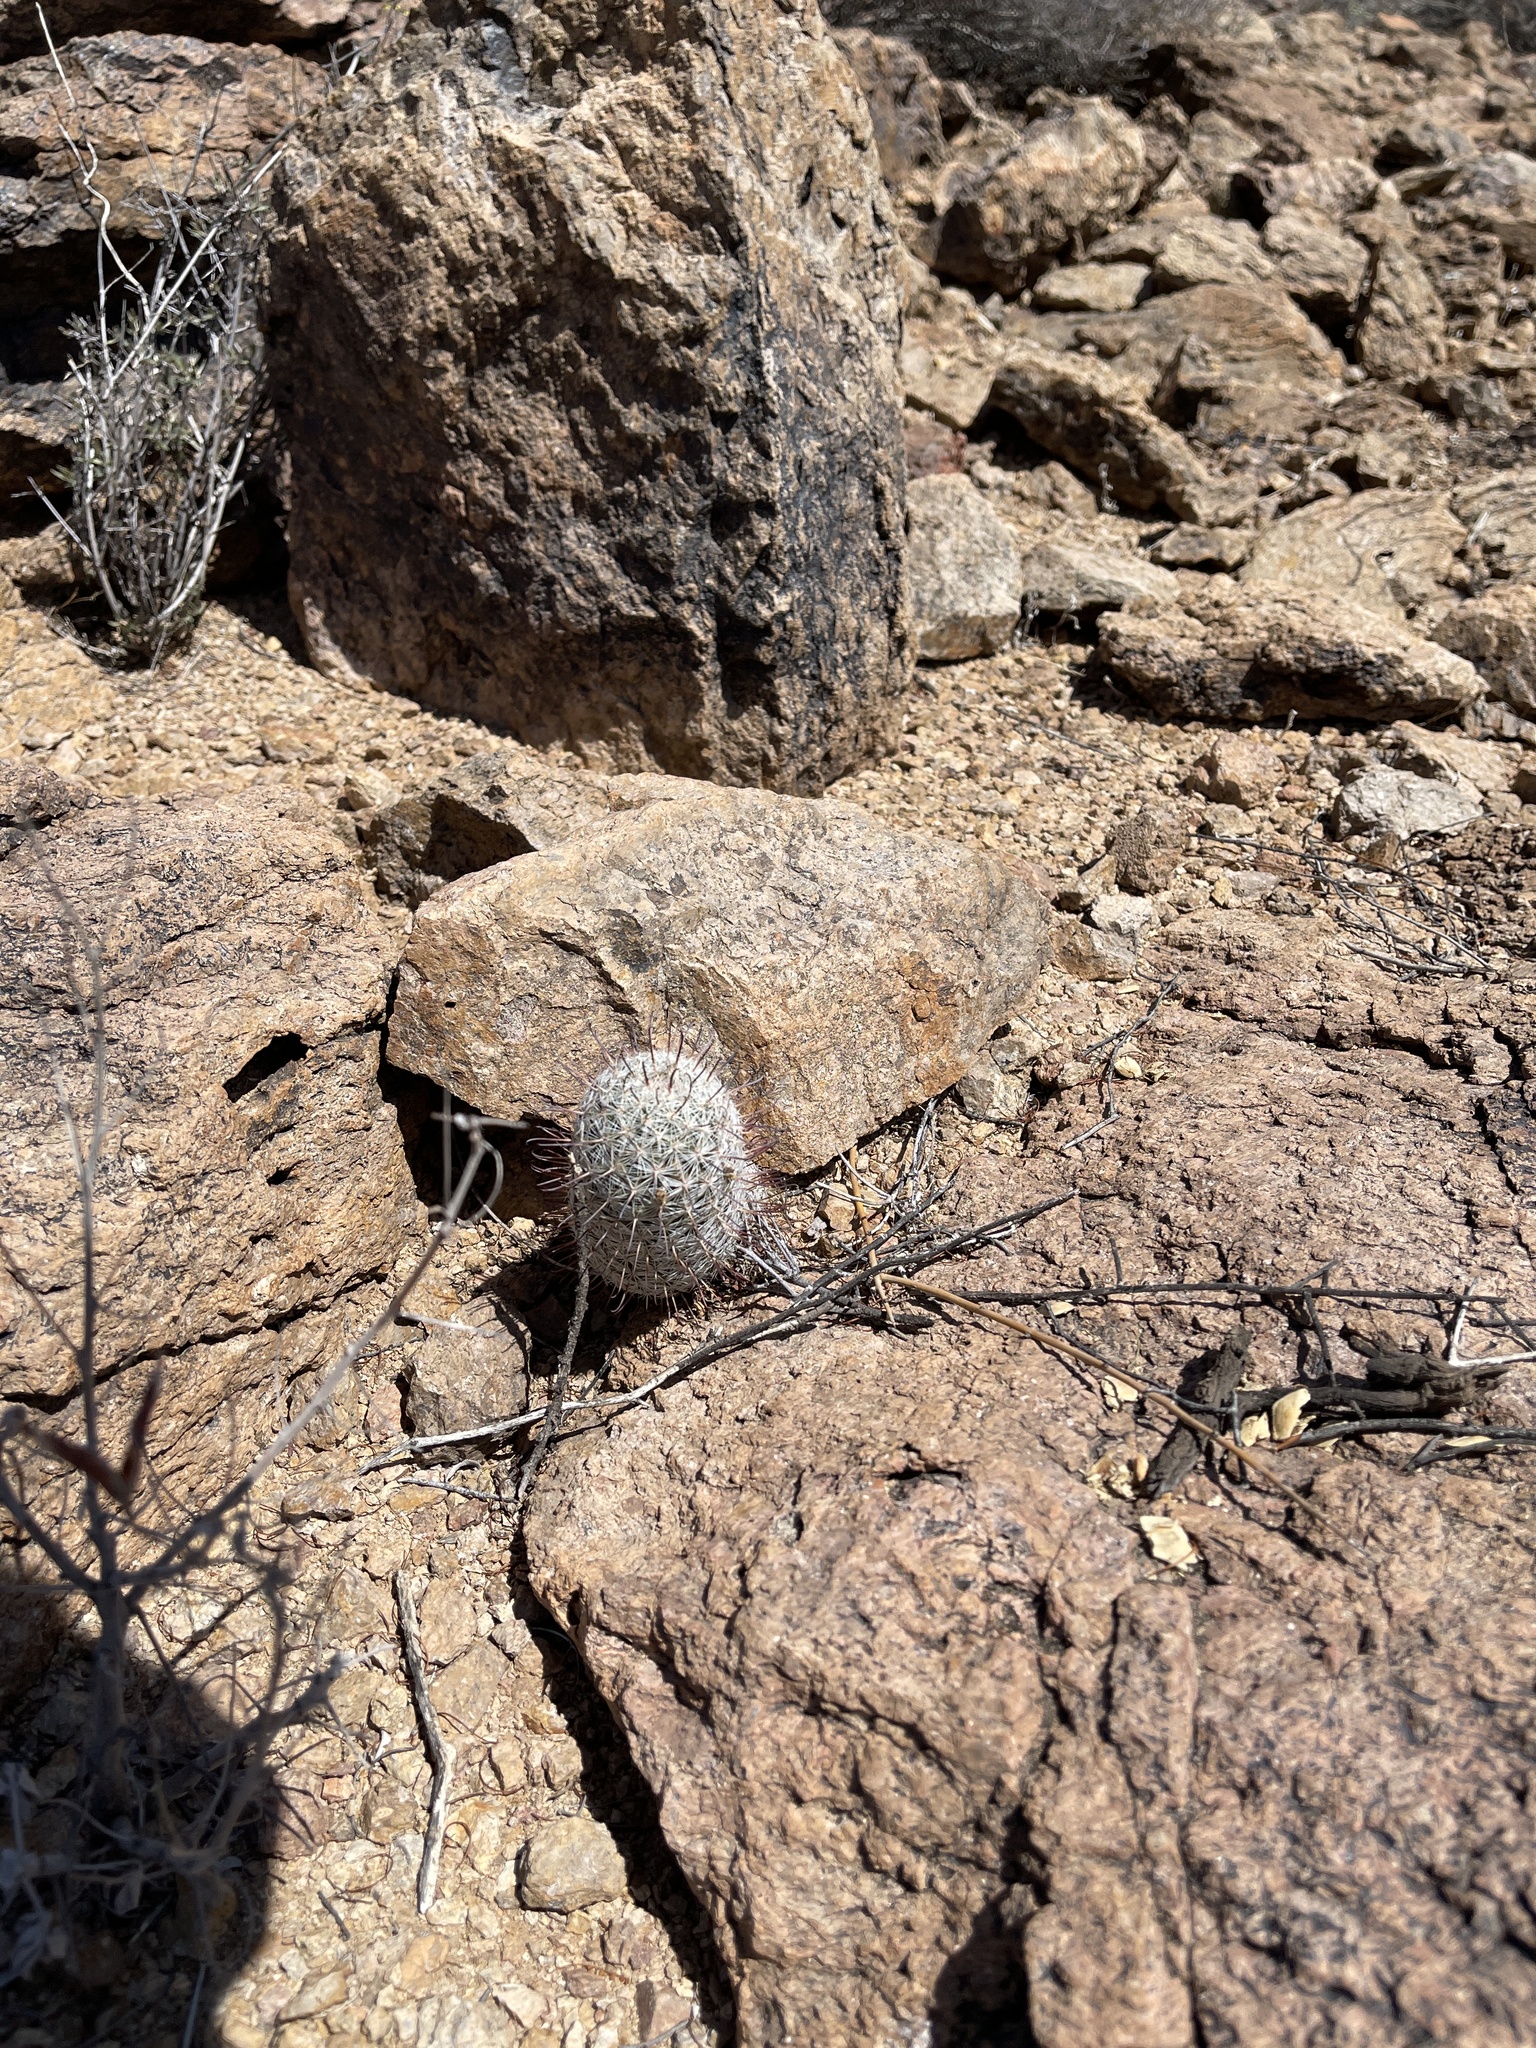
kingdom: Plantae
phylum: Tracheophyta
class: Magnoliopsida
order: Caryophyllales
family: Cactaceae
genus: Cochemiea
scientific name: Cochemiea grahamii
